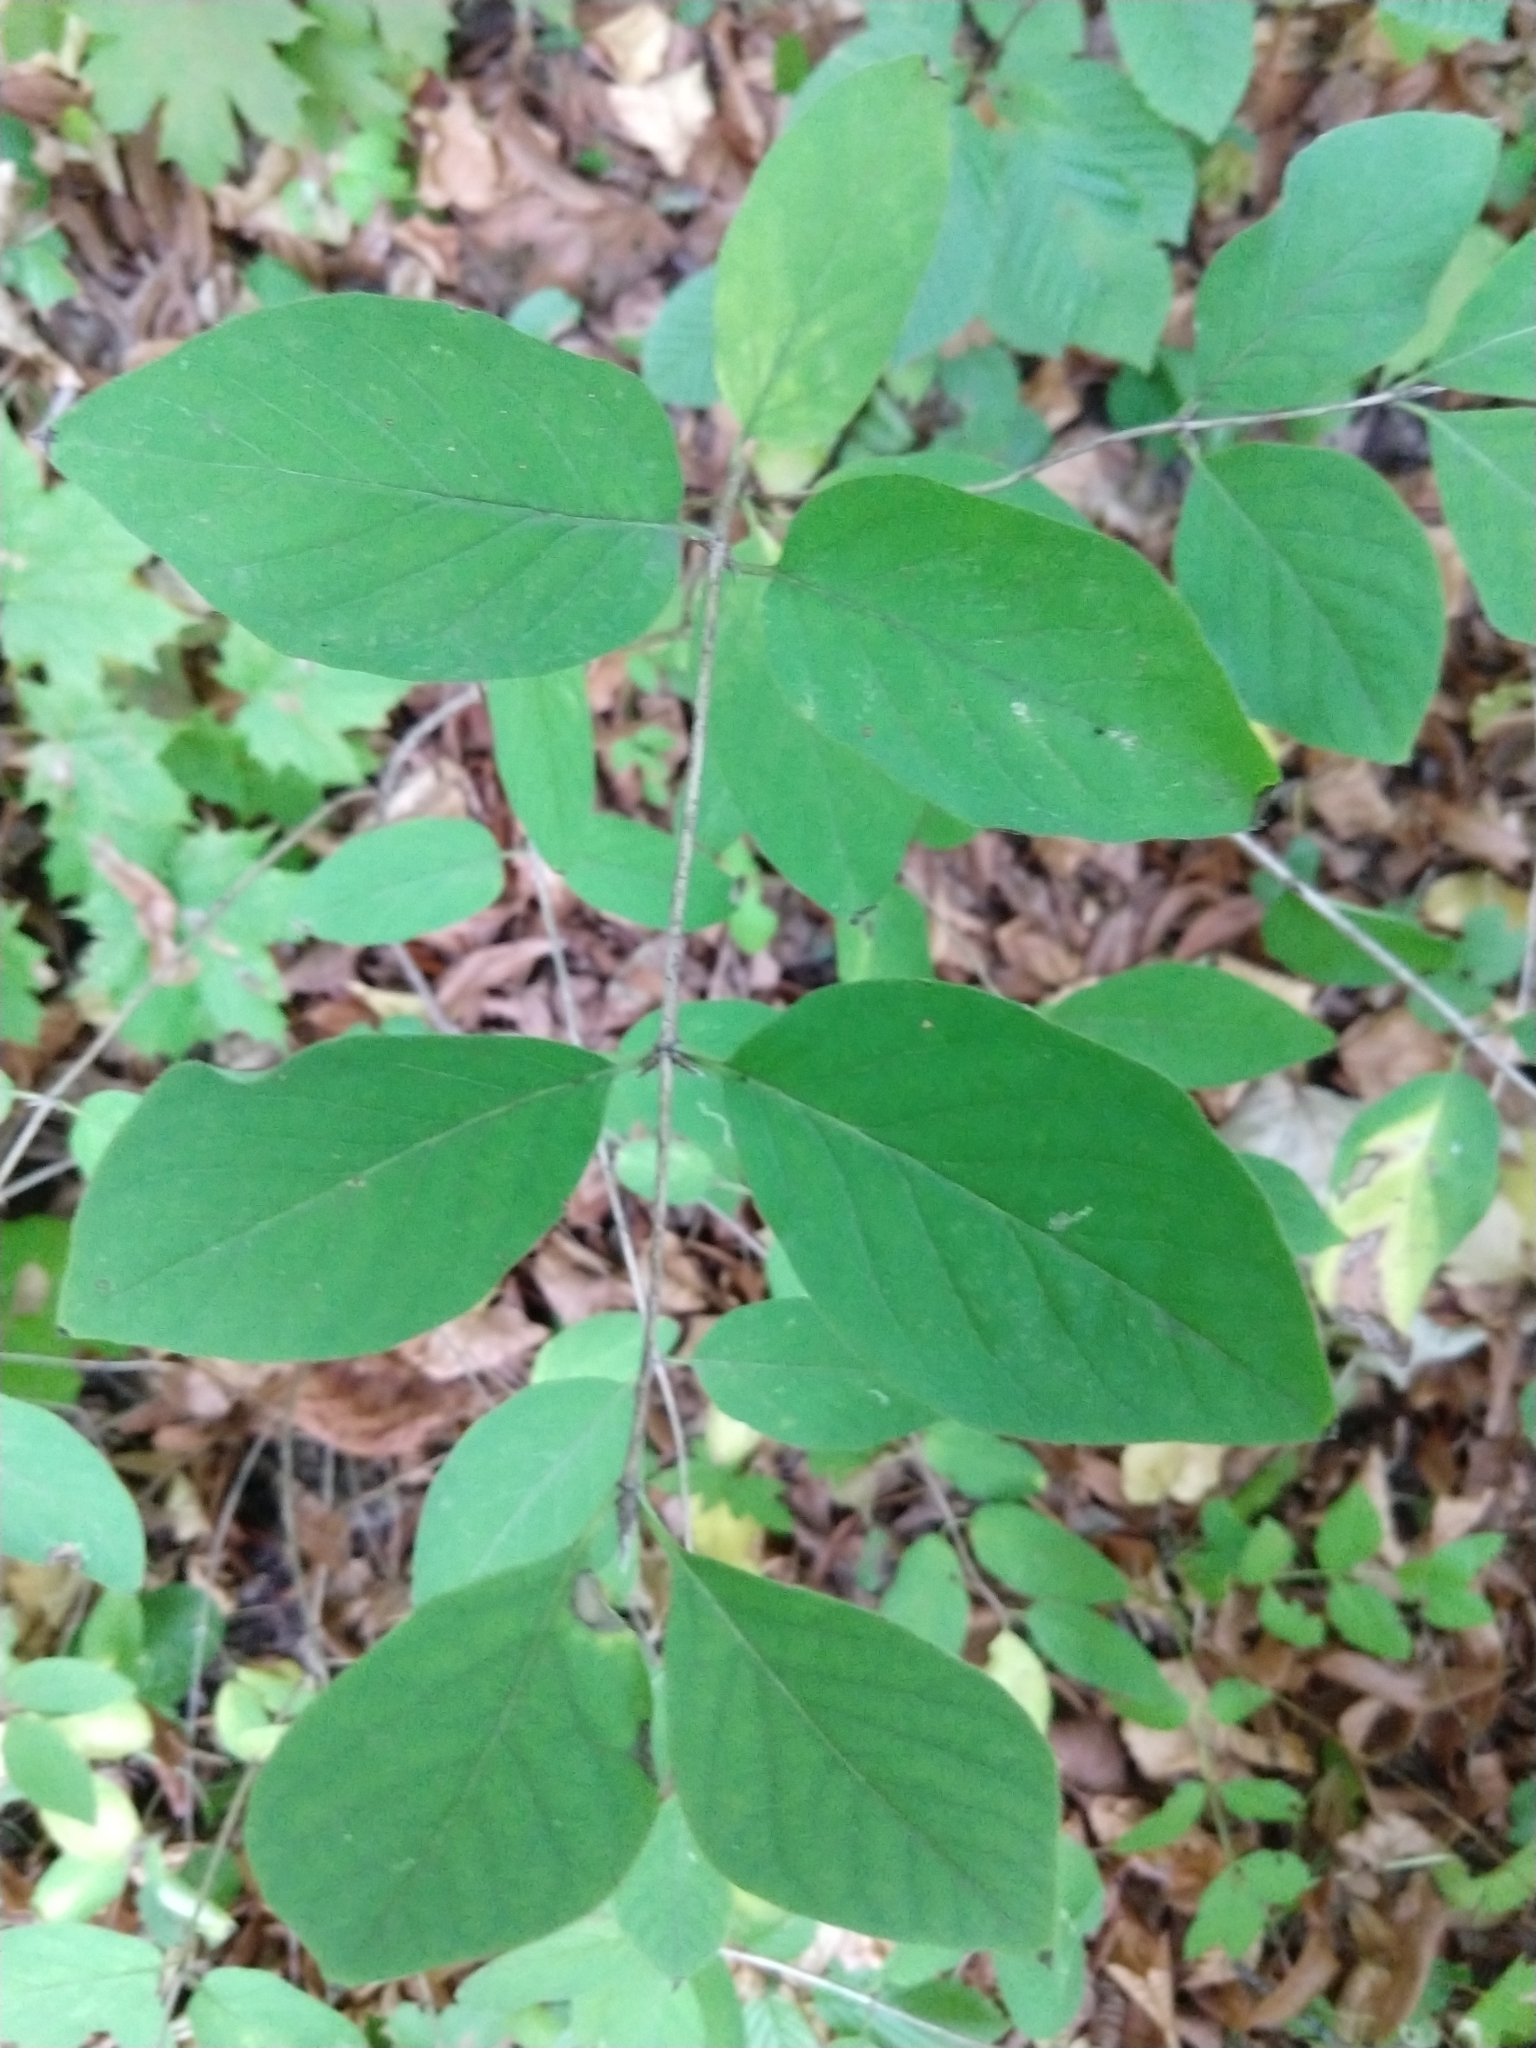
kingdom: Plantae
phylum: Tracheophyta
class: Magnoliopsida
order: Dipsacales
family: Caprifoliaceae
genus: Lonicera
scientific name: Lonicera xylosteum
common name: Fly honeysuckle
